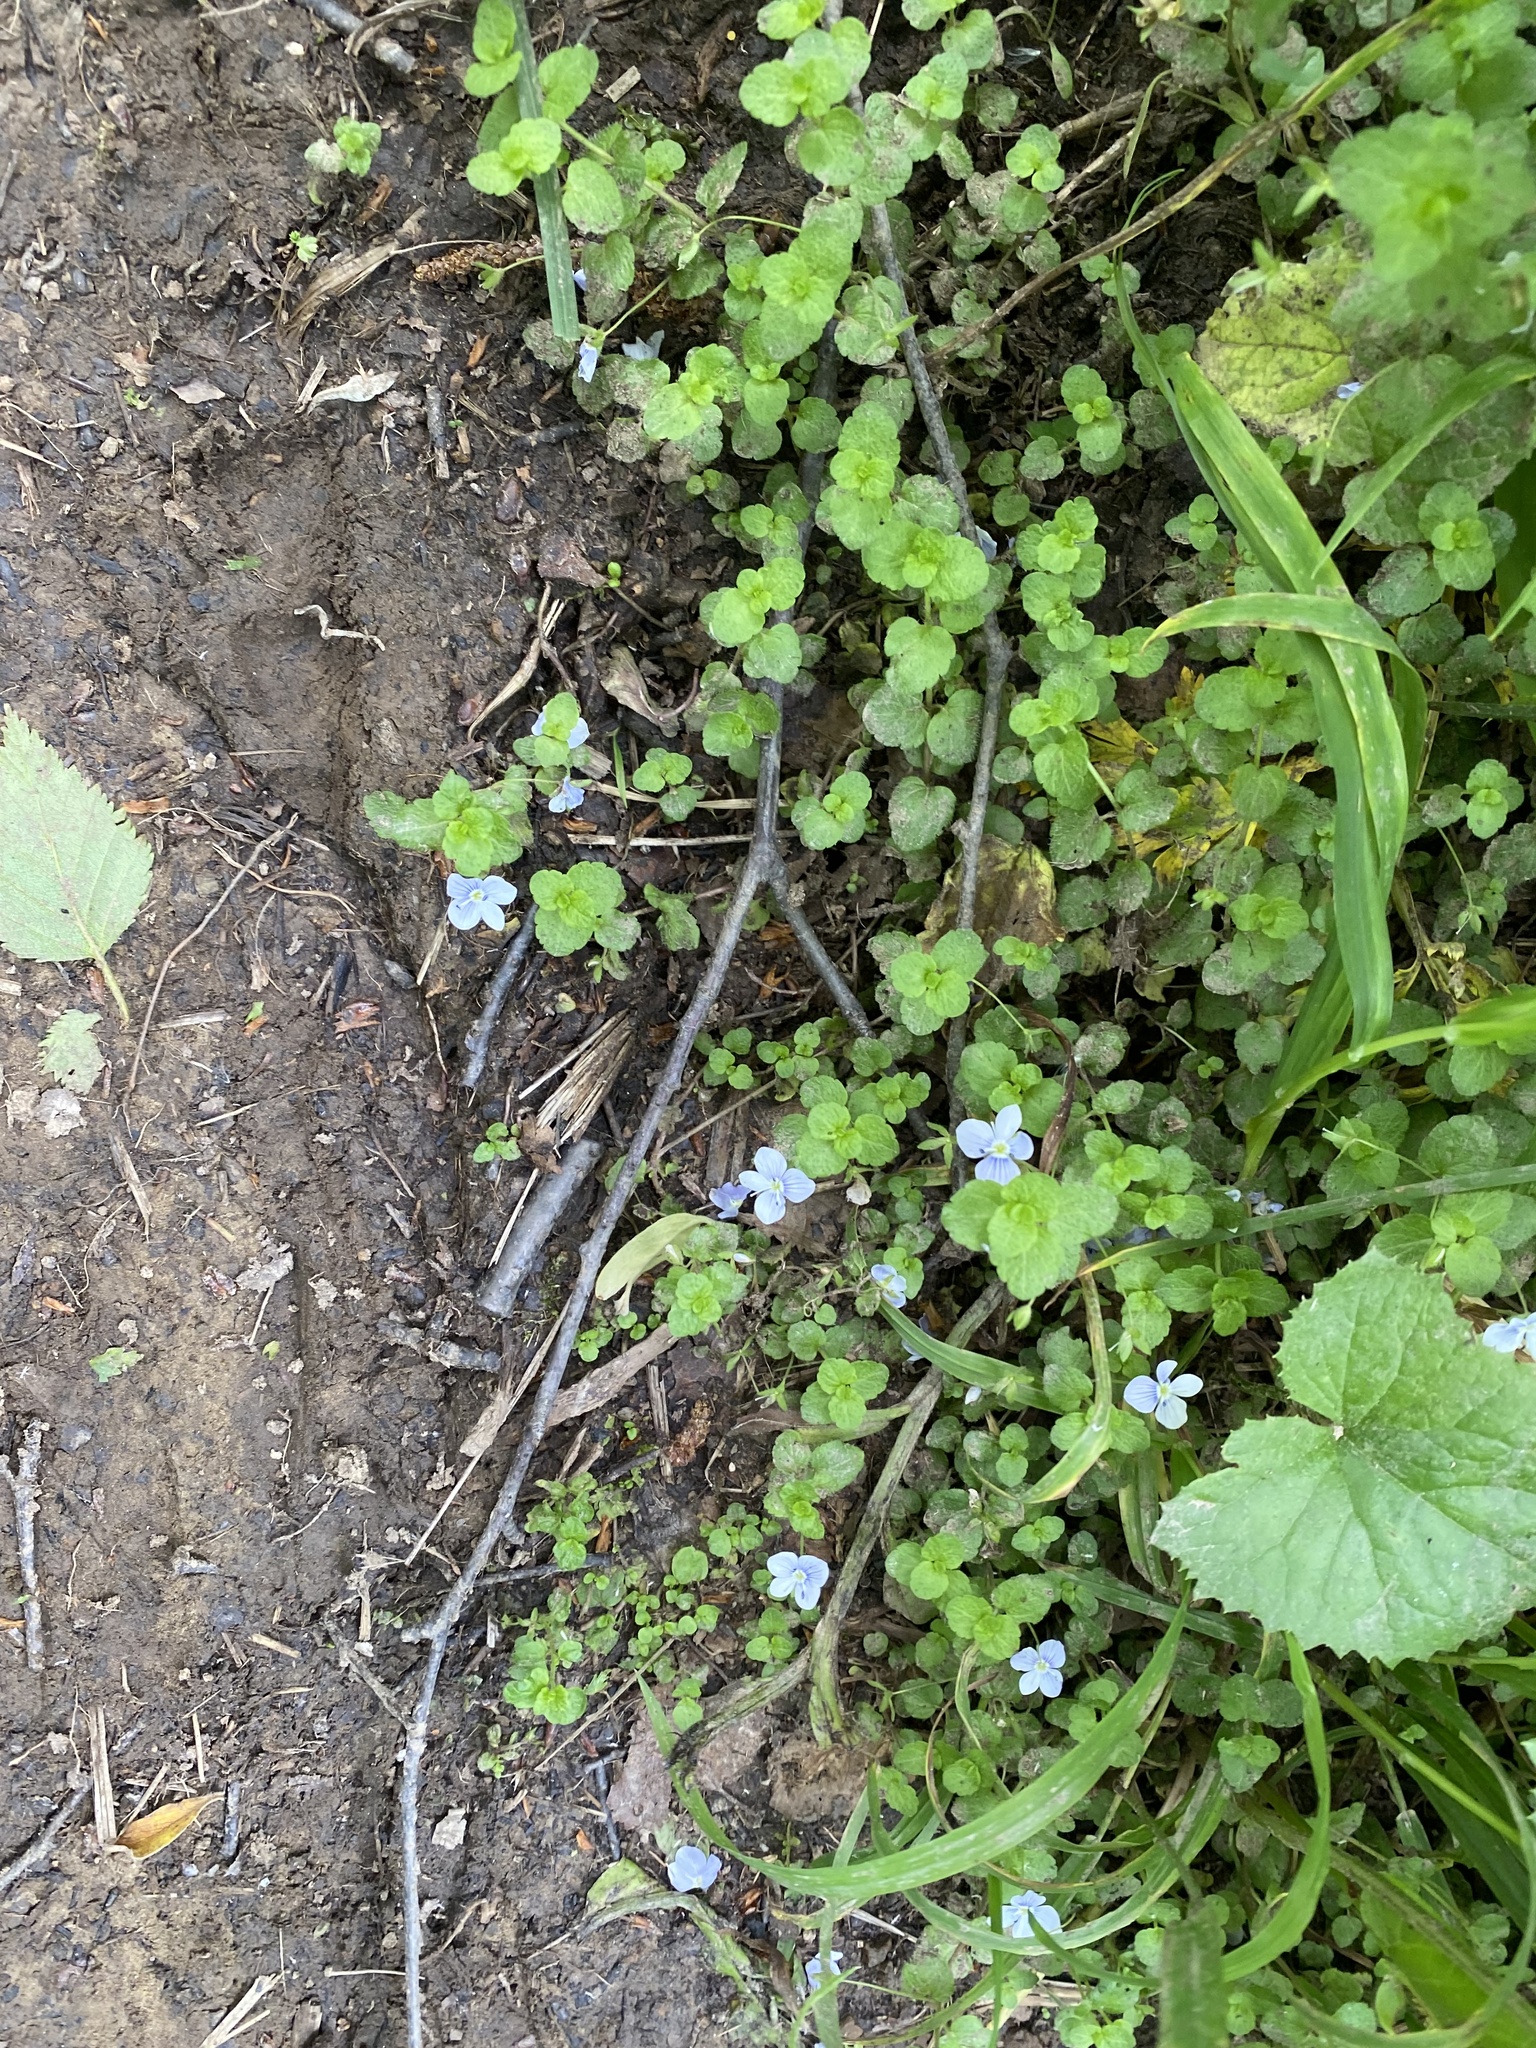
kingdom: Plantae
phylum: Tracheophyta
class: Magnoliopsida
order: Lamiales
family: Plantaginaceae
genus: Veronica
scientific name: Veronica filiformis
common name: Slender speedwell
